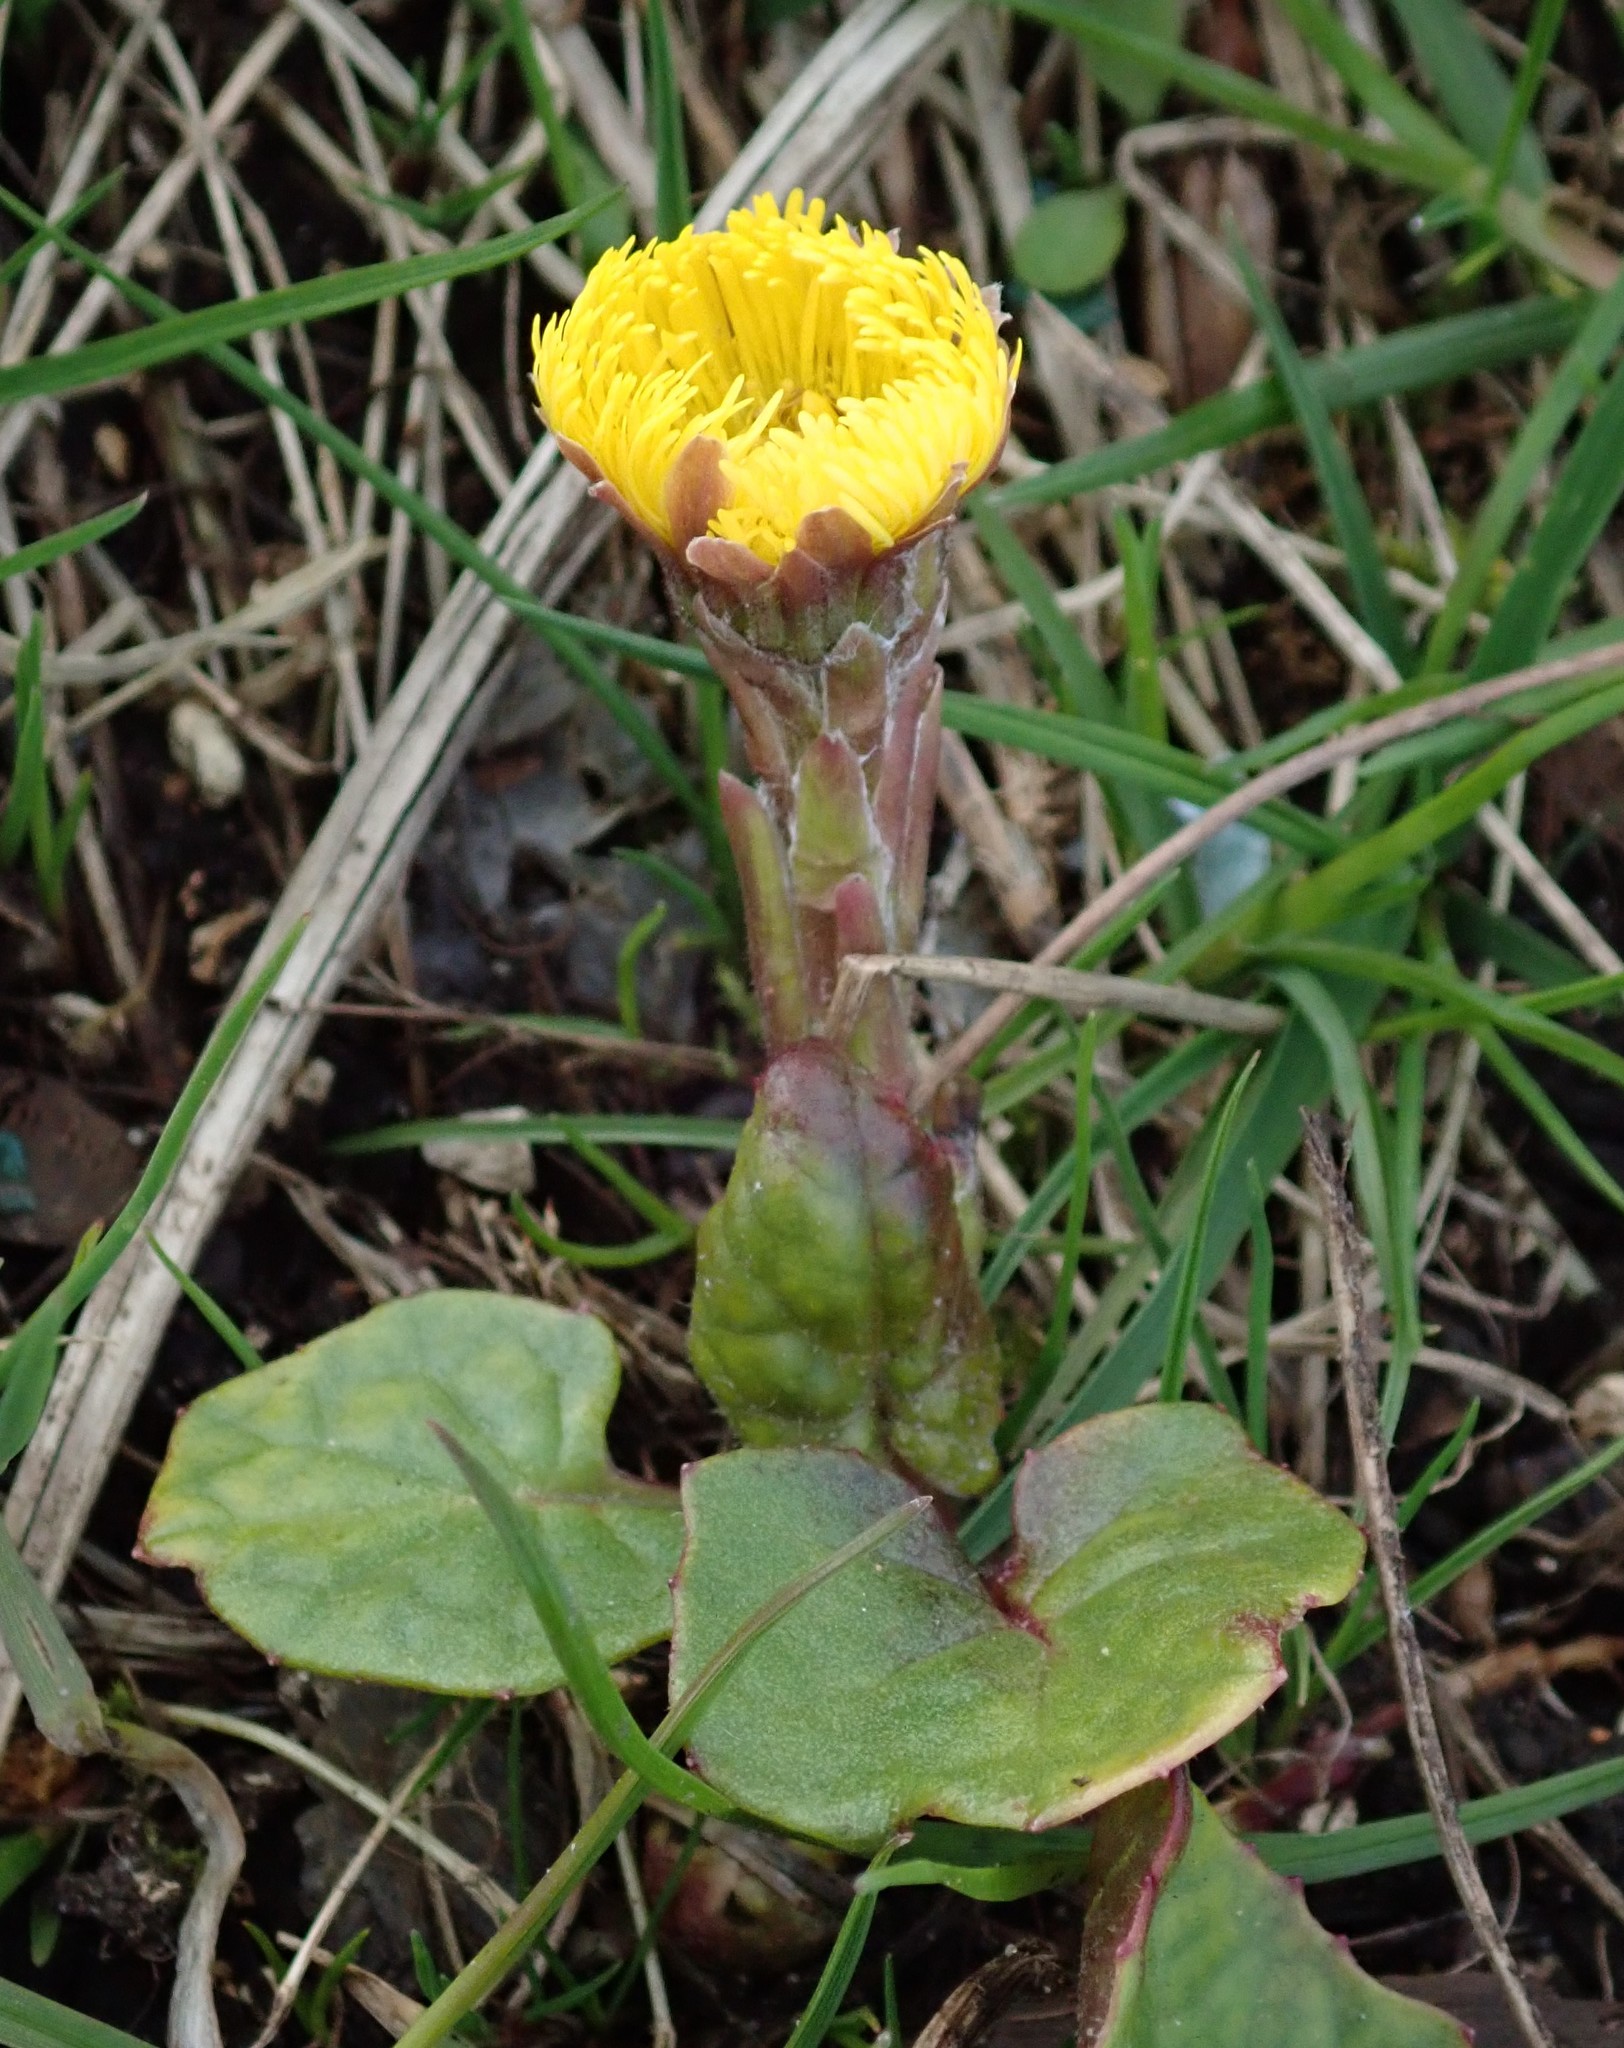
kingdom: Plantae
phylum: Tracheophyta
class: Magnoliopsida
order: Asterales
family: Asteraceae
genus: Tussilago
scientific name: Tussilago farfara
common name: Coltsfoot
